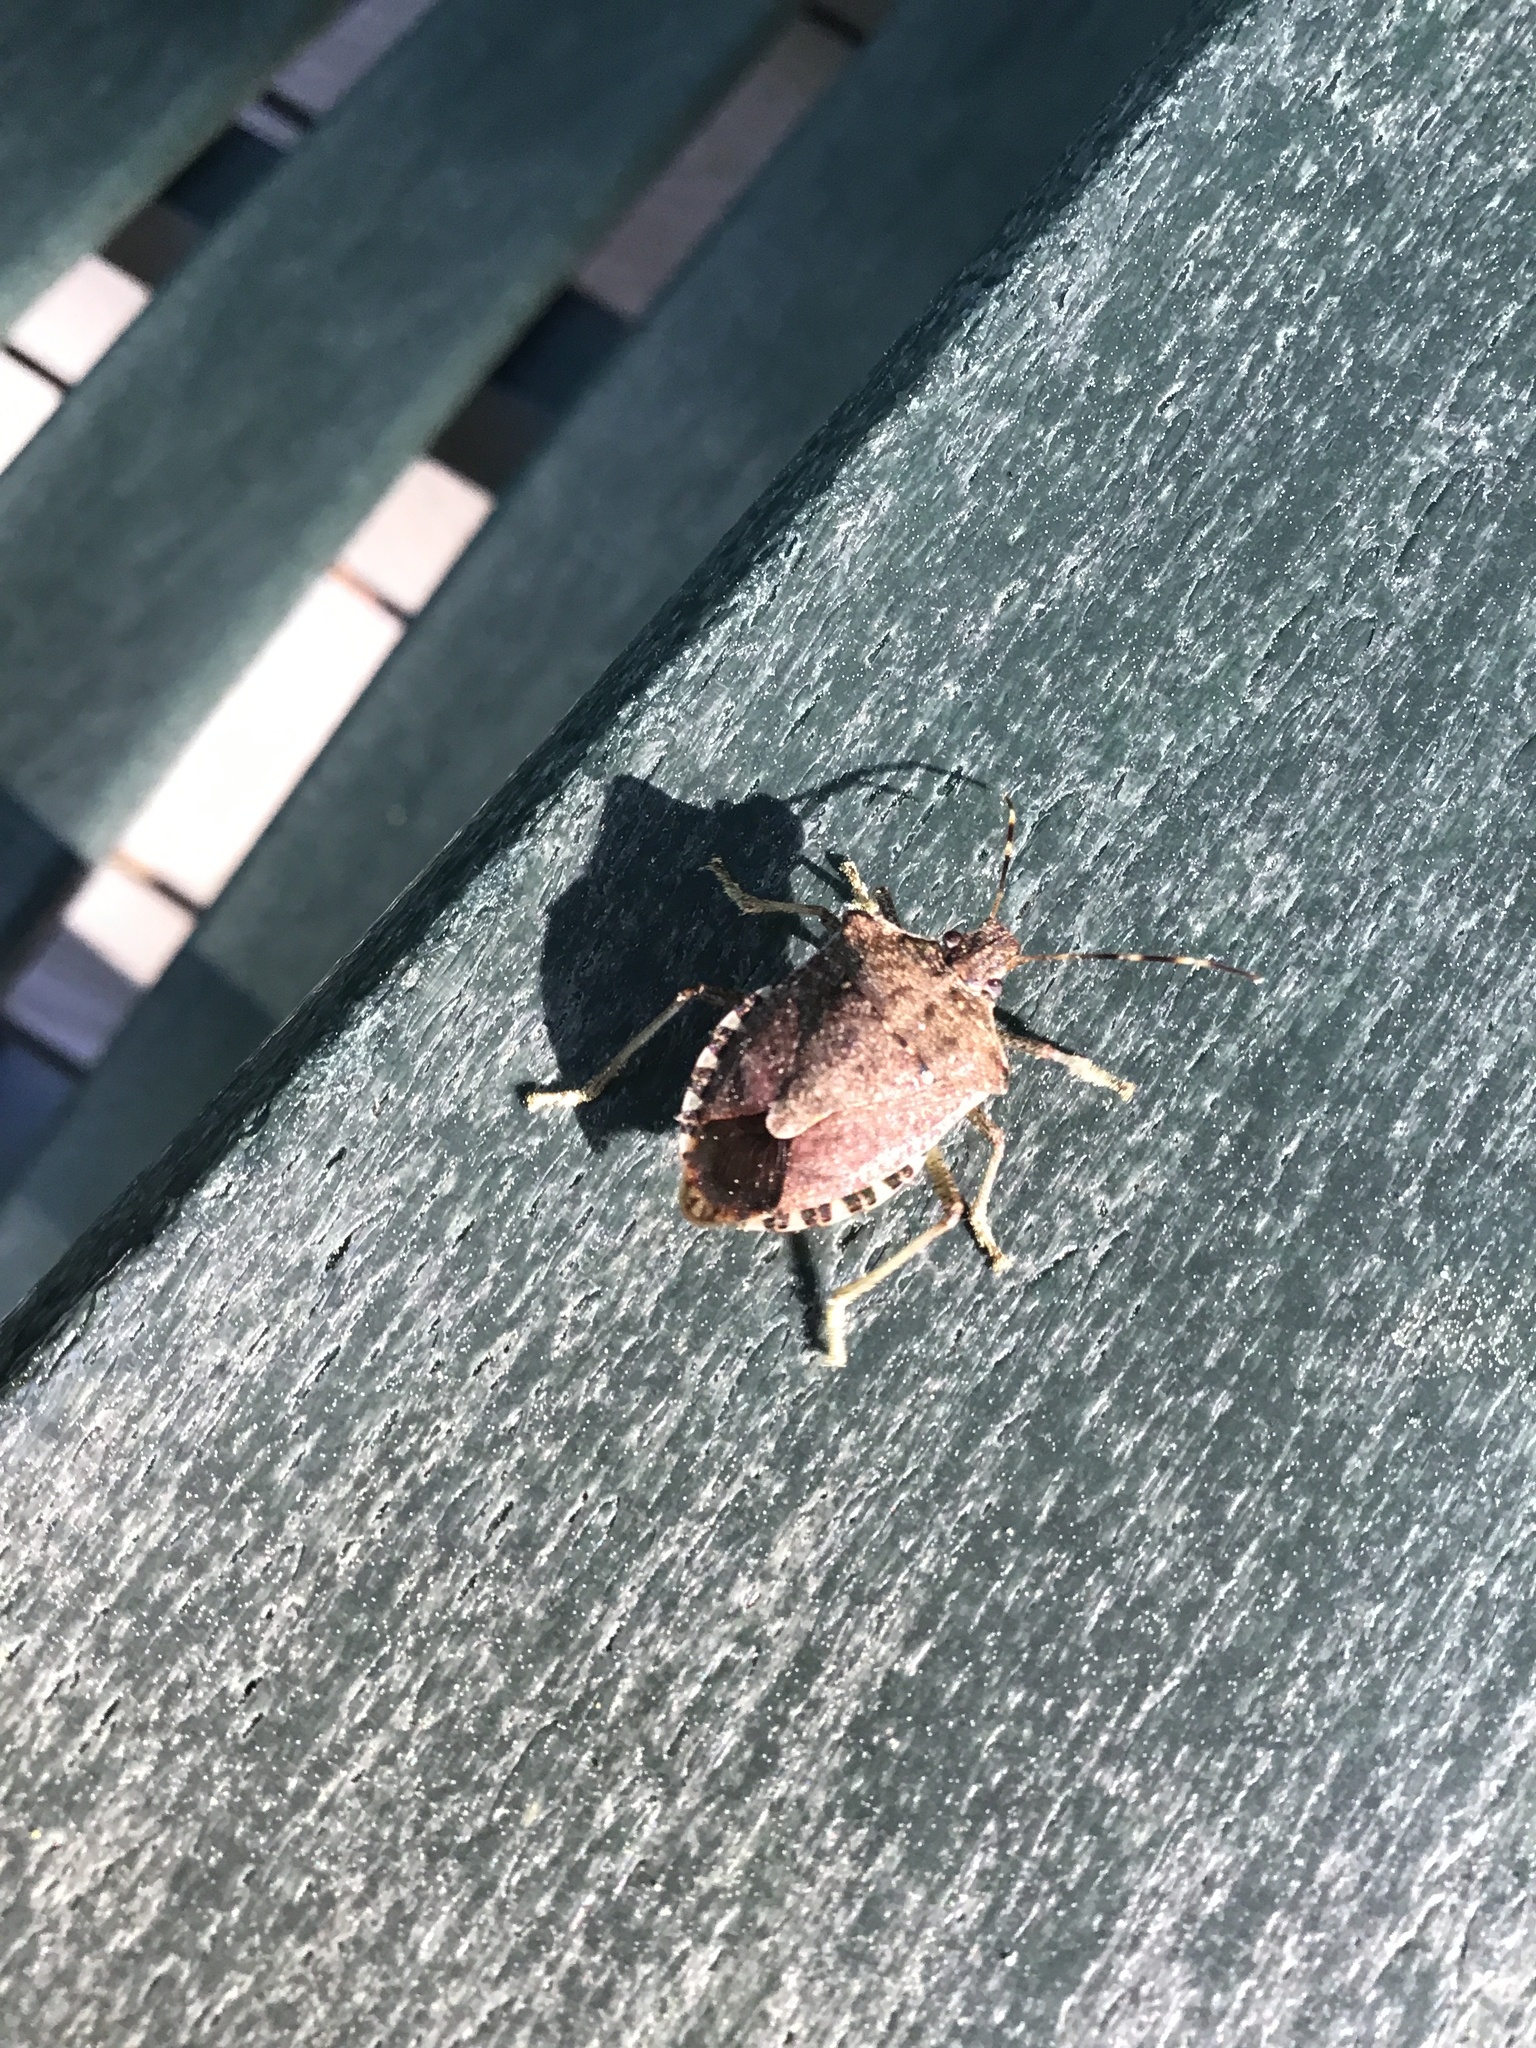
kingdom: Animalia
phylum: Arthropoda
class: Insecta
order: Hemiptera
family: Pentatomidae
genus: Halyomorpha
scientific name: Halyomorpha halys
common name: Brown marmorated stink bug
